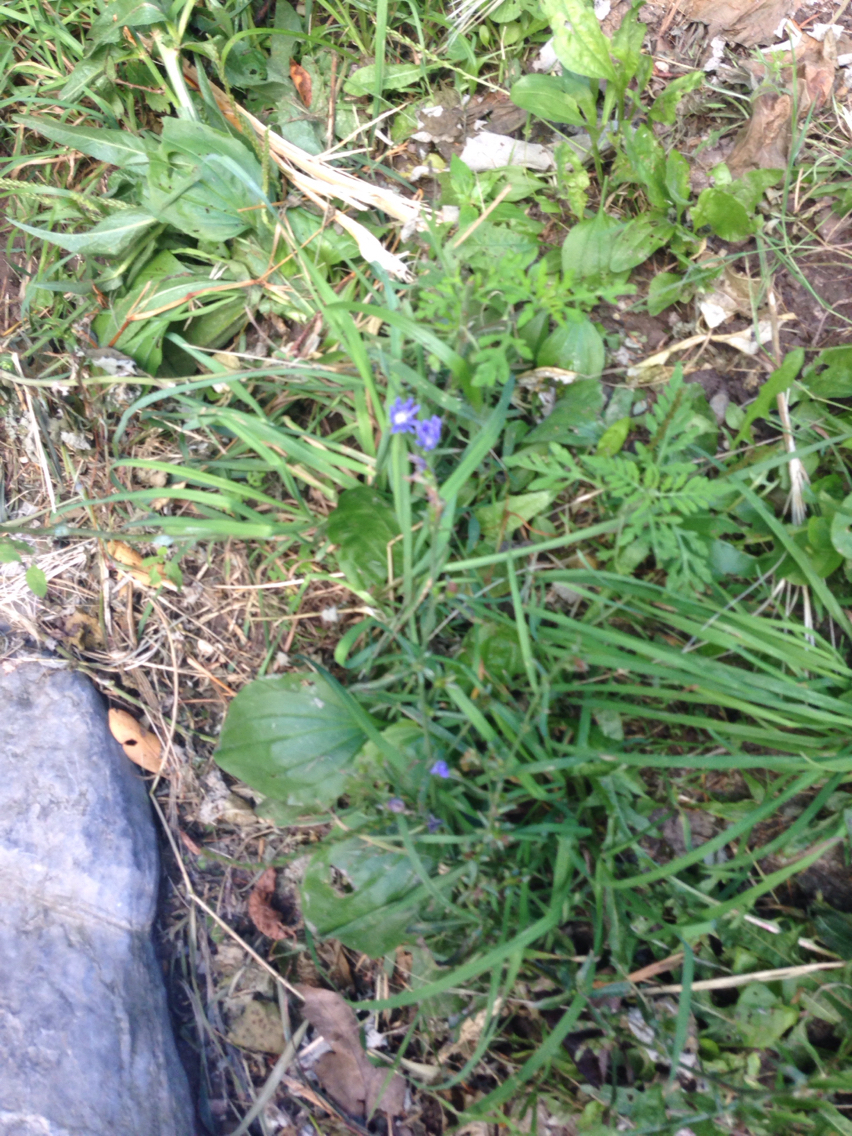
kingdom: Plantae
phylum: Tracheophyta
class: Magnoliopsida
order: Lamiales
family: Plantaginaceae
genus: Plantago
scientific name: Plantago major
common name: Common plantain
